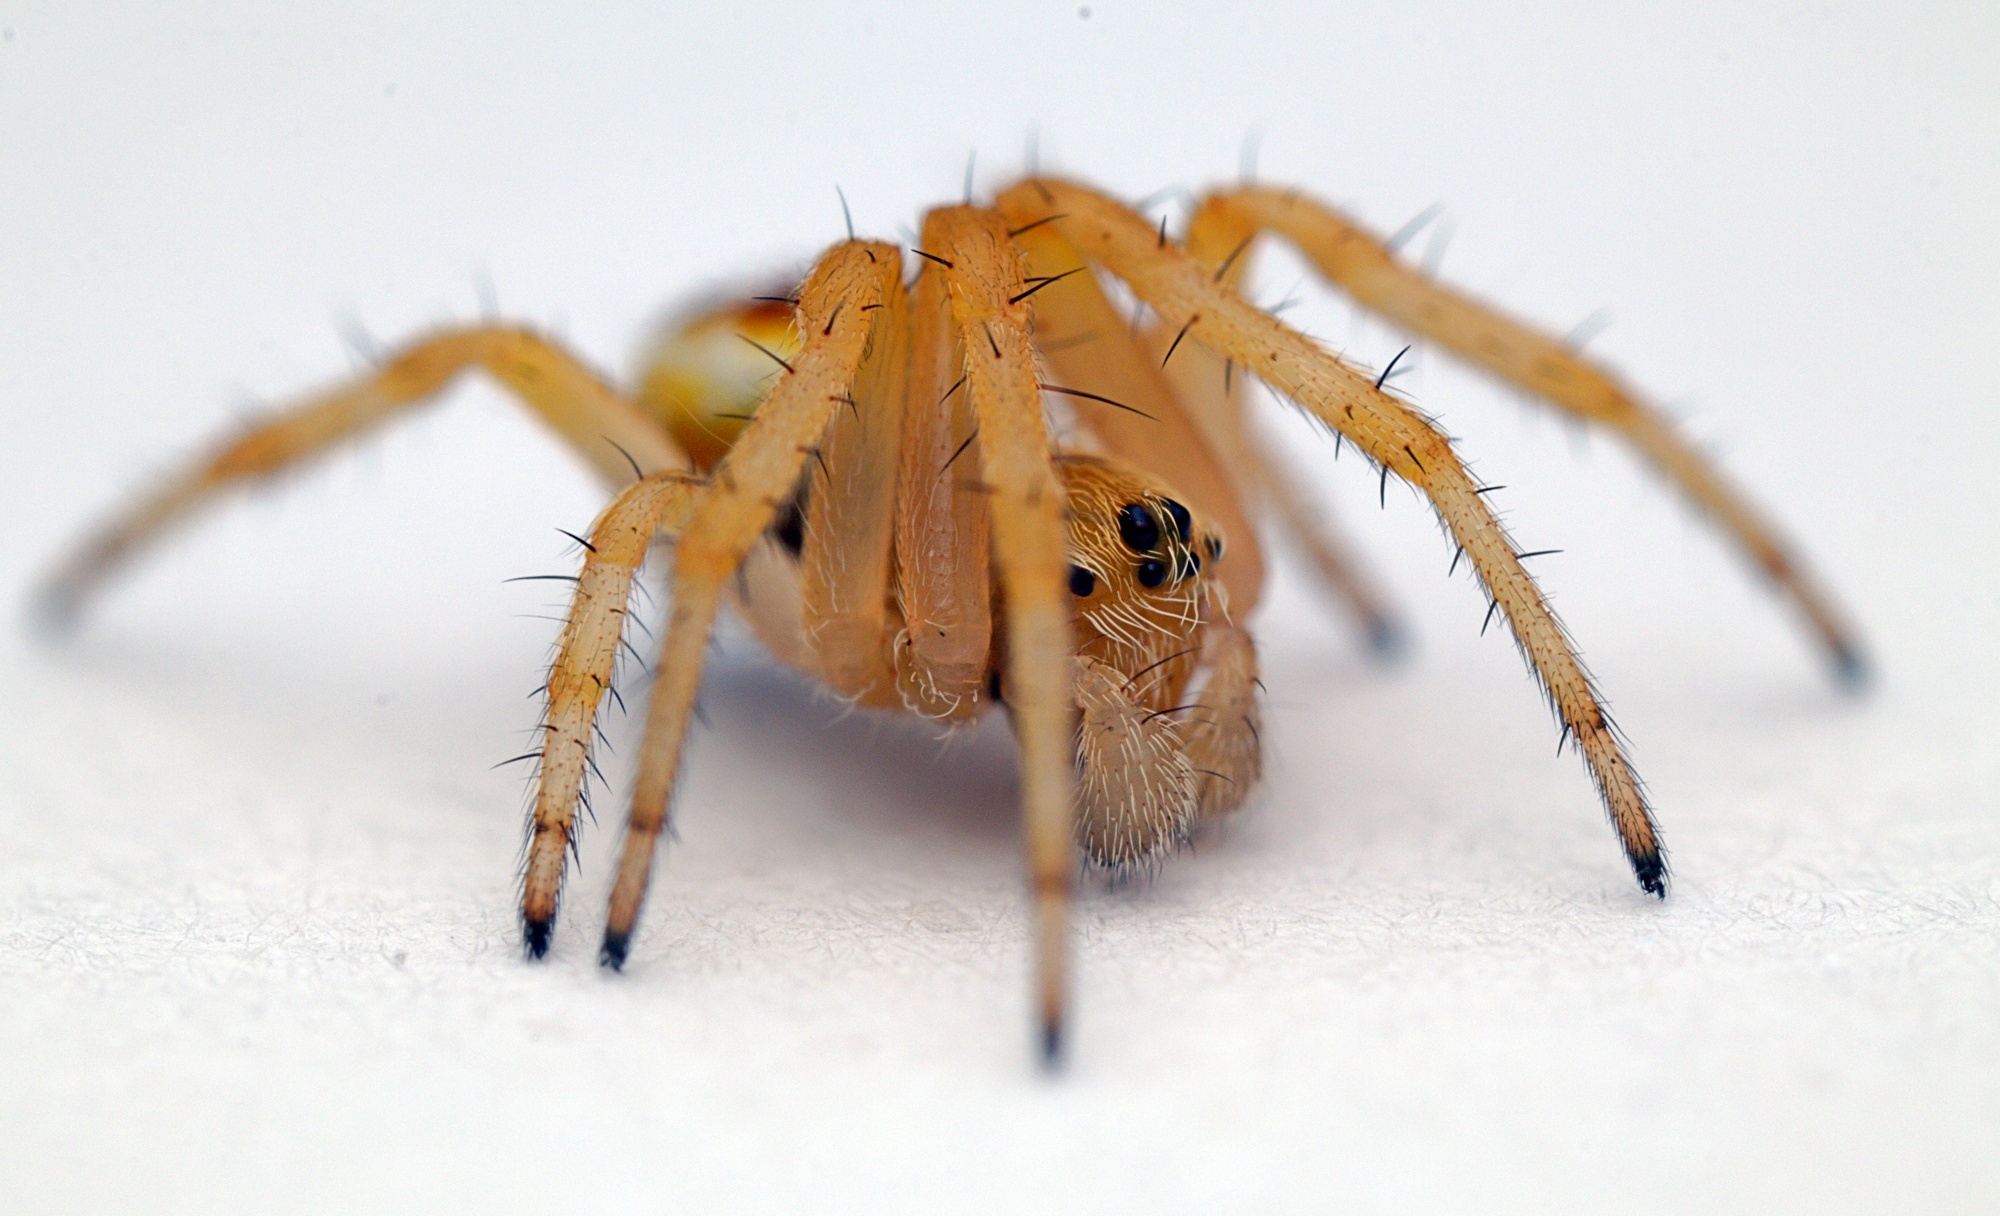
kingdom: Animalia
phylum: Arthropoda
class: Arachnida
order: Araneae
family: Araneidae
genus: Salsa
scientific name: Salsa fuliginata
